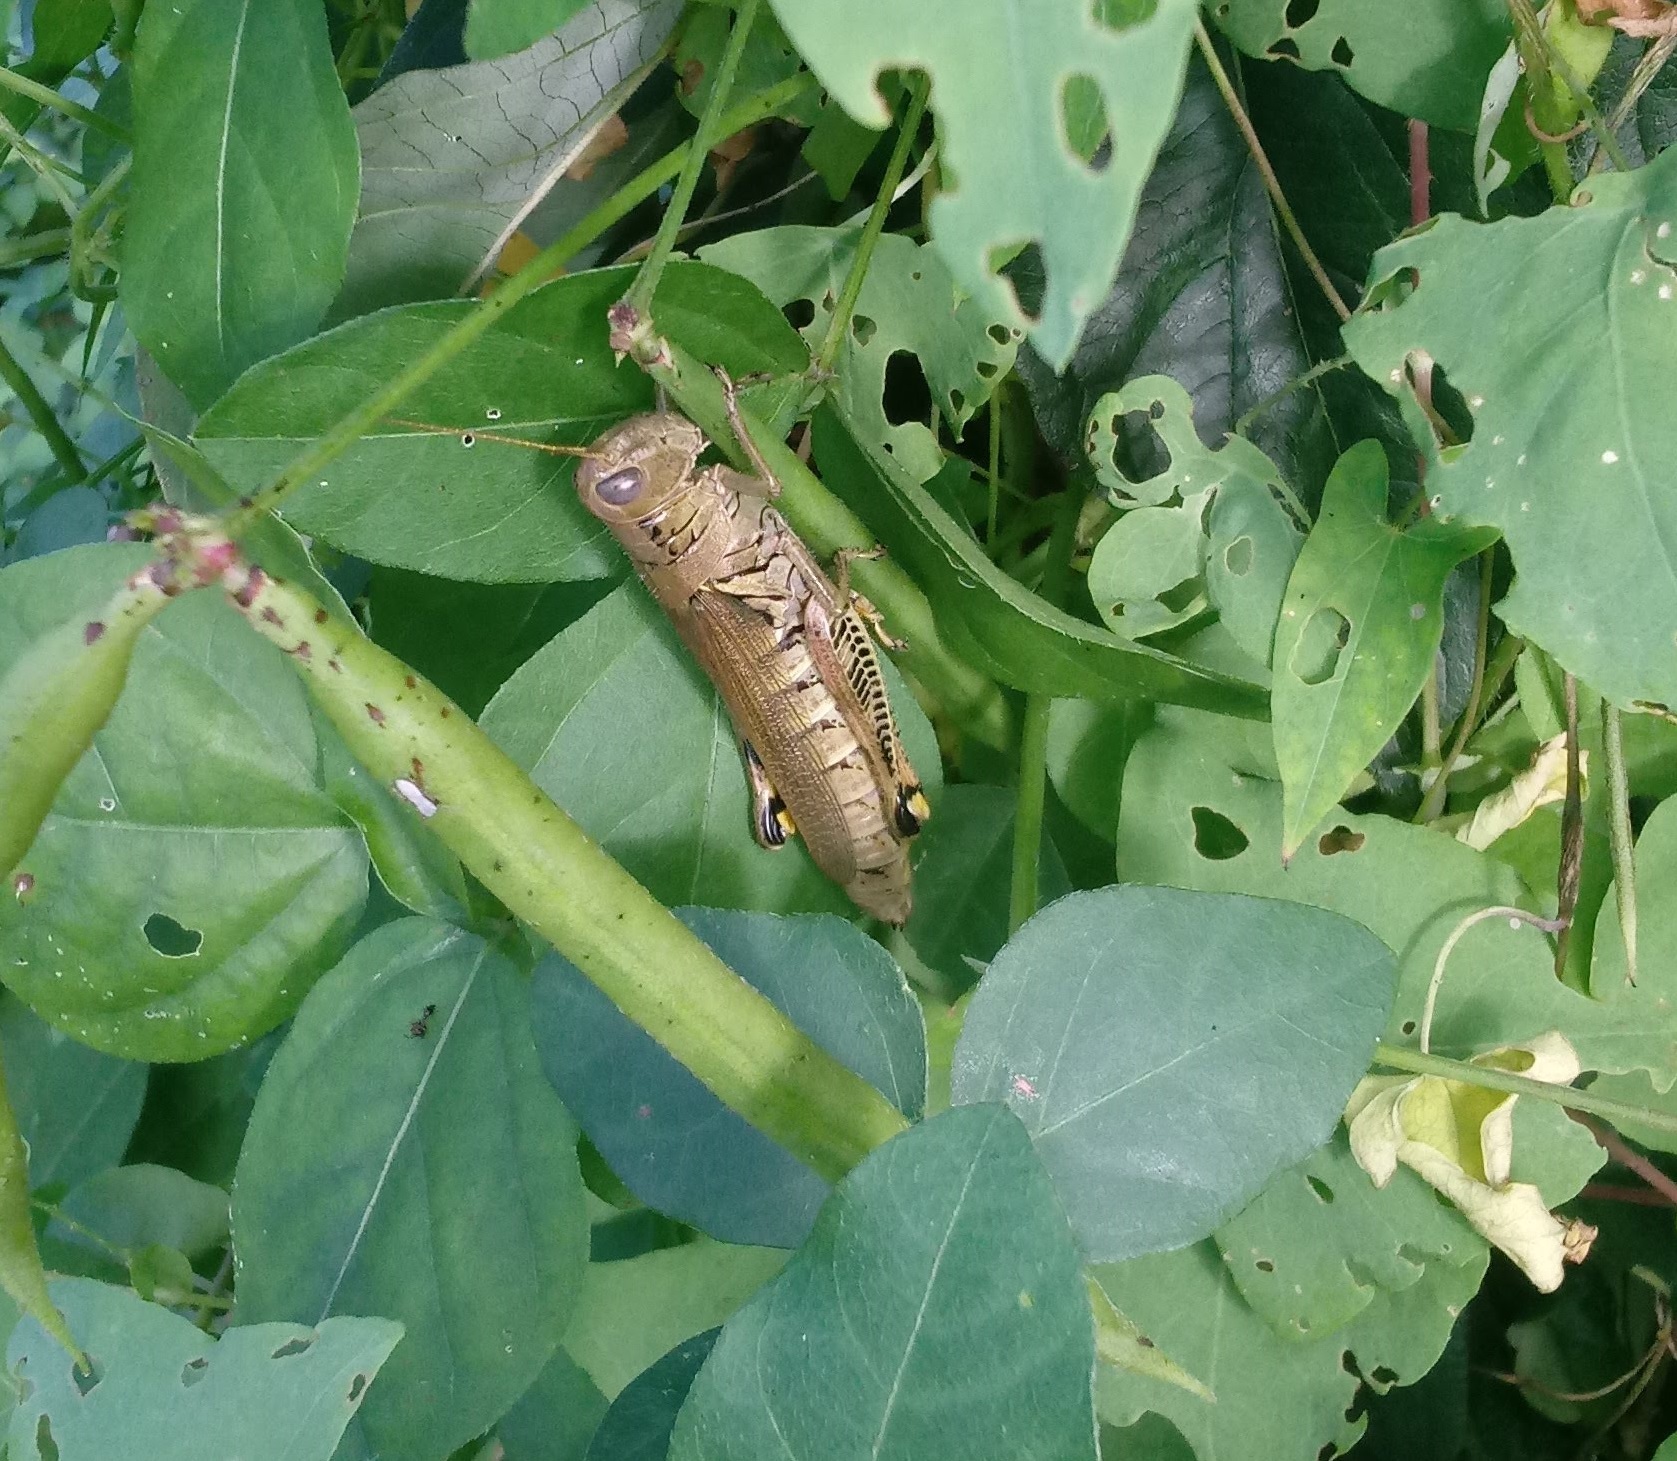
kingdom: Animalia
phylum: Arthropoda
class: Insecta
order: Orthoptera
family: Acrididae
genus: Melanoplus
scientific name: Melanoplus differentialis
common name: Differential grasshopper
